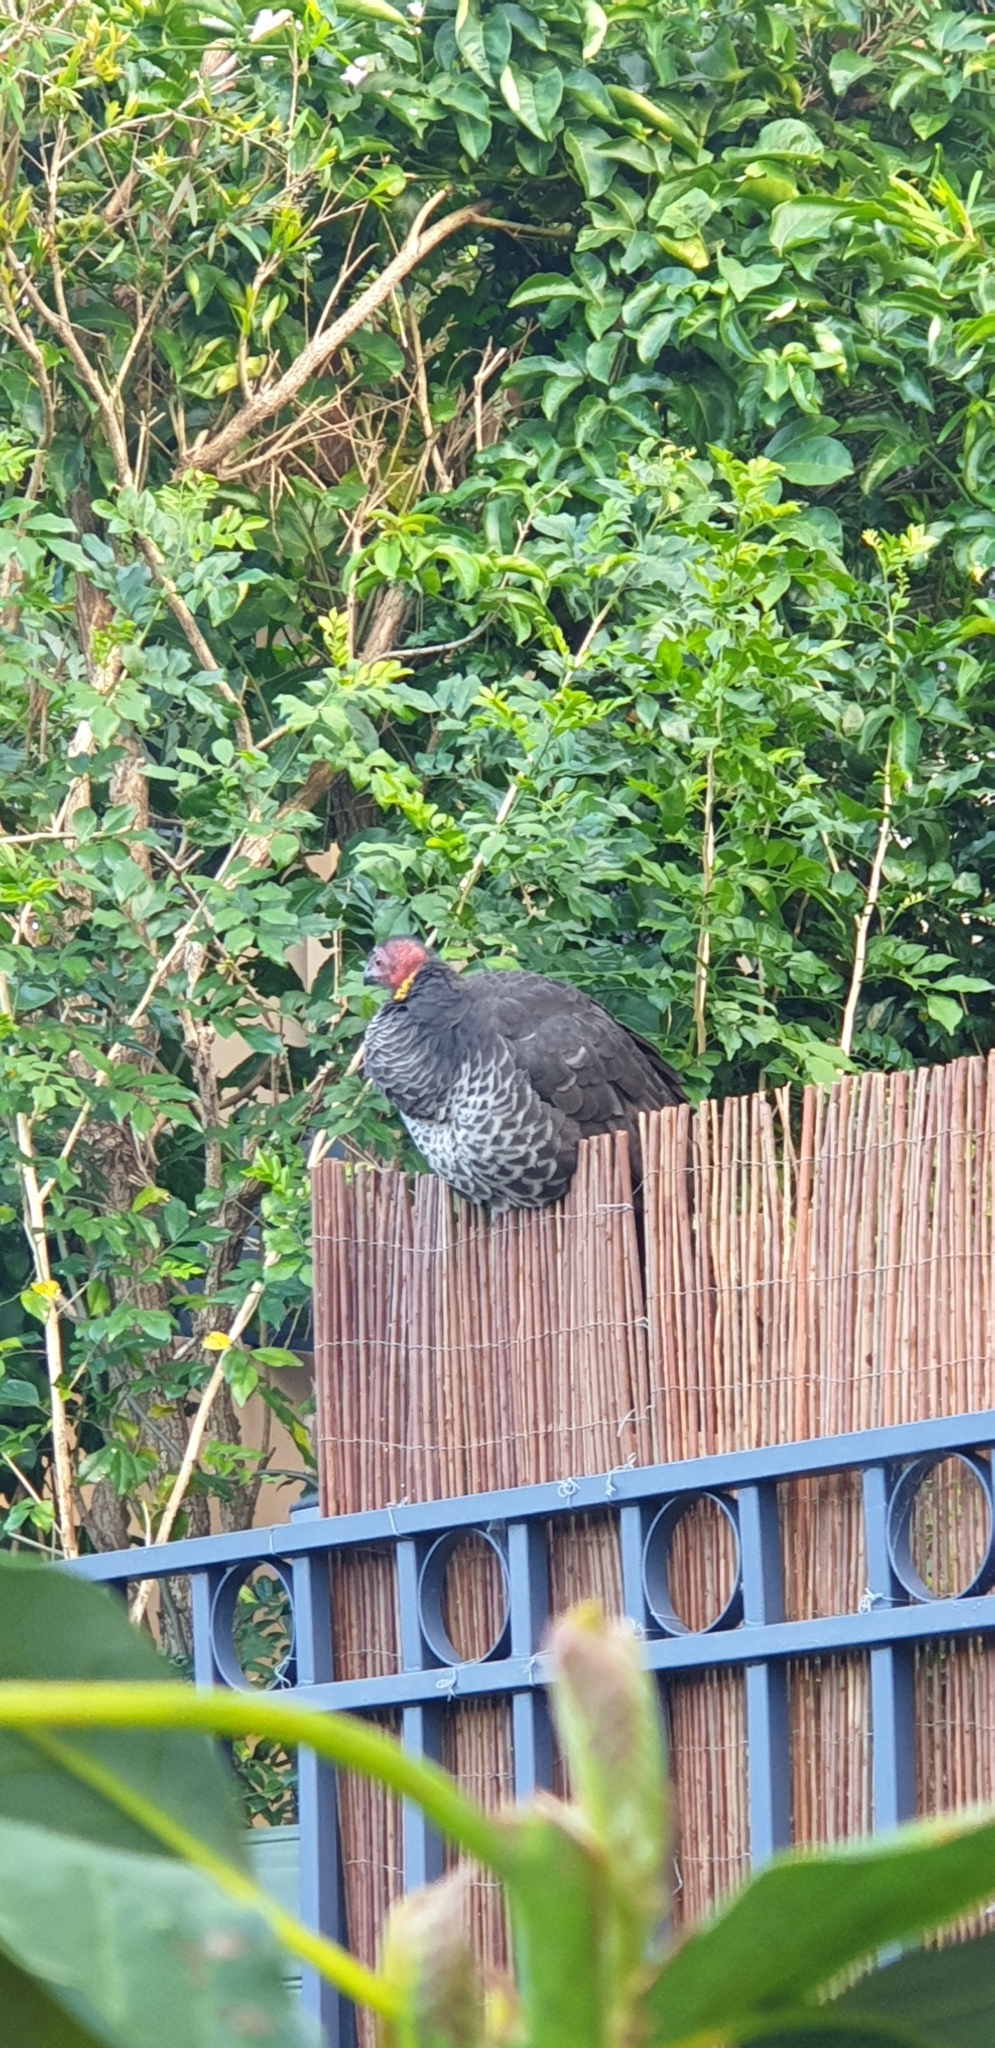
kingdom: Animalia
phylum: Chordata
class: Aves
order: Galliformes
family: Megapodiidae
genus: Alectura
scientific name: Alectura lathami
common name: Australian brushturkey
